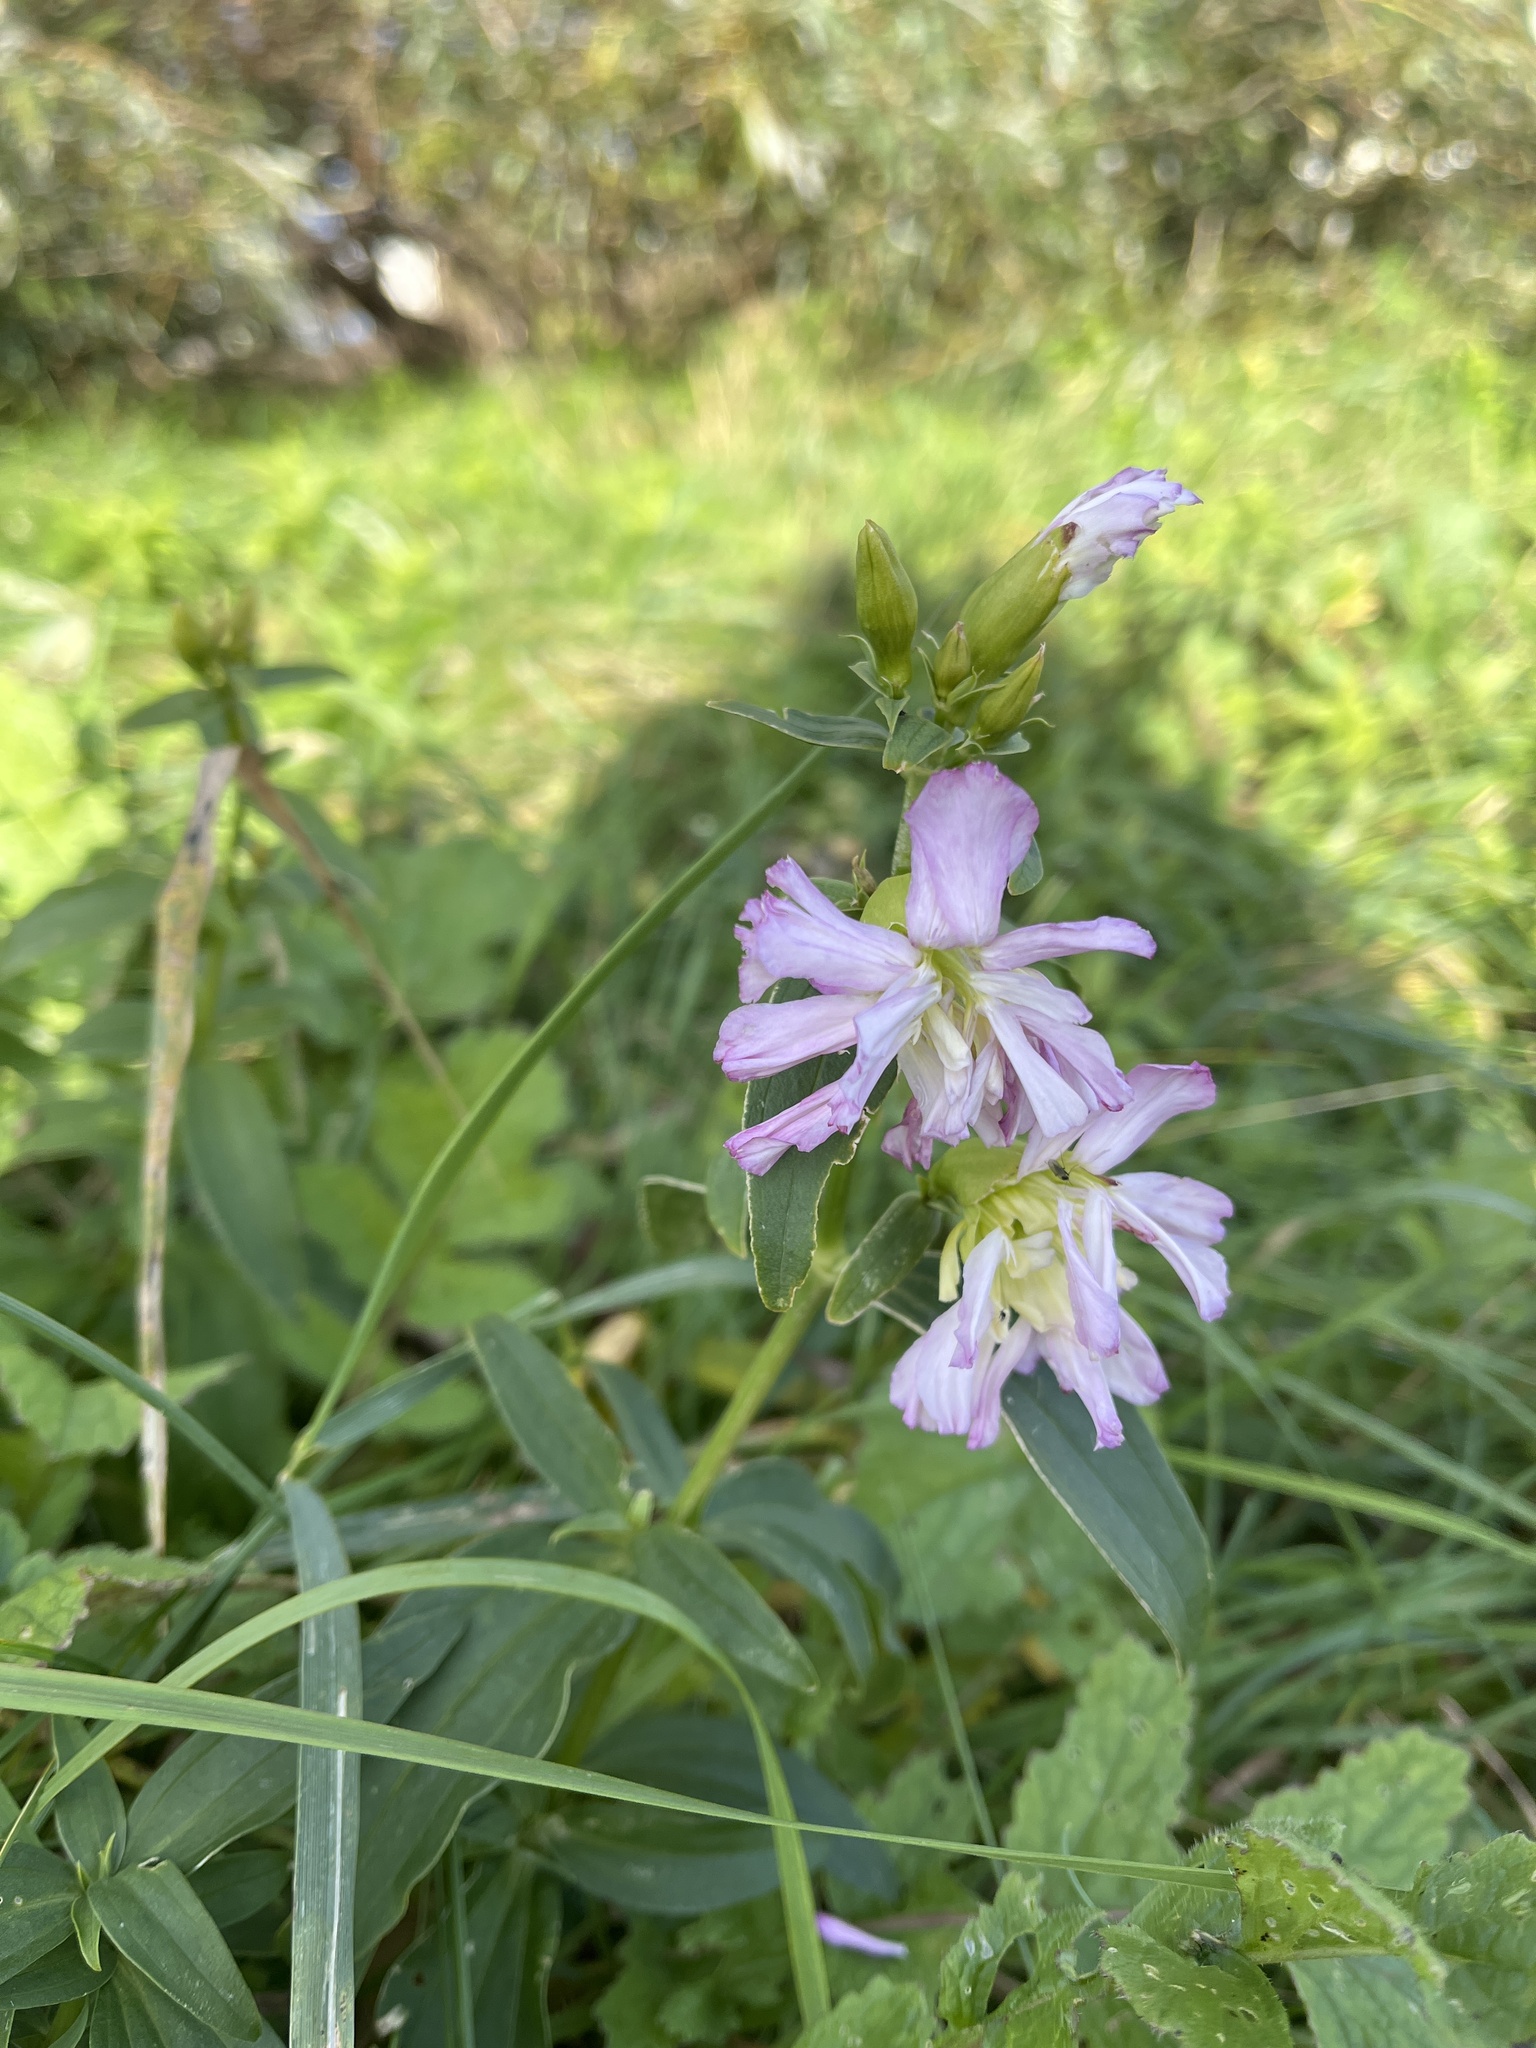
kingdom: Plantae
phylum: Tracheophyta
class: Magnoliopsida
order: Caryophyllales
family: Caryophyllaceae
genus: Saponaria
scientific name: Saponaria officinalis
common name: Soapwort
